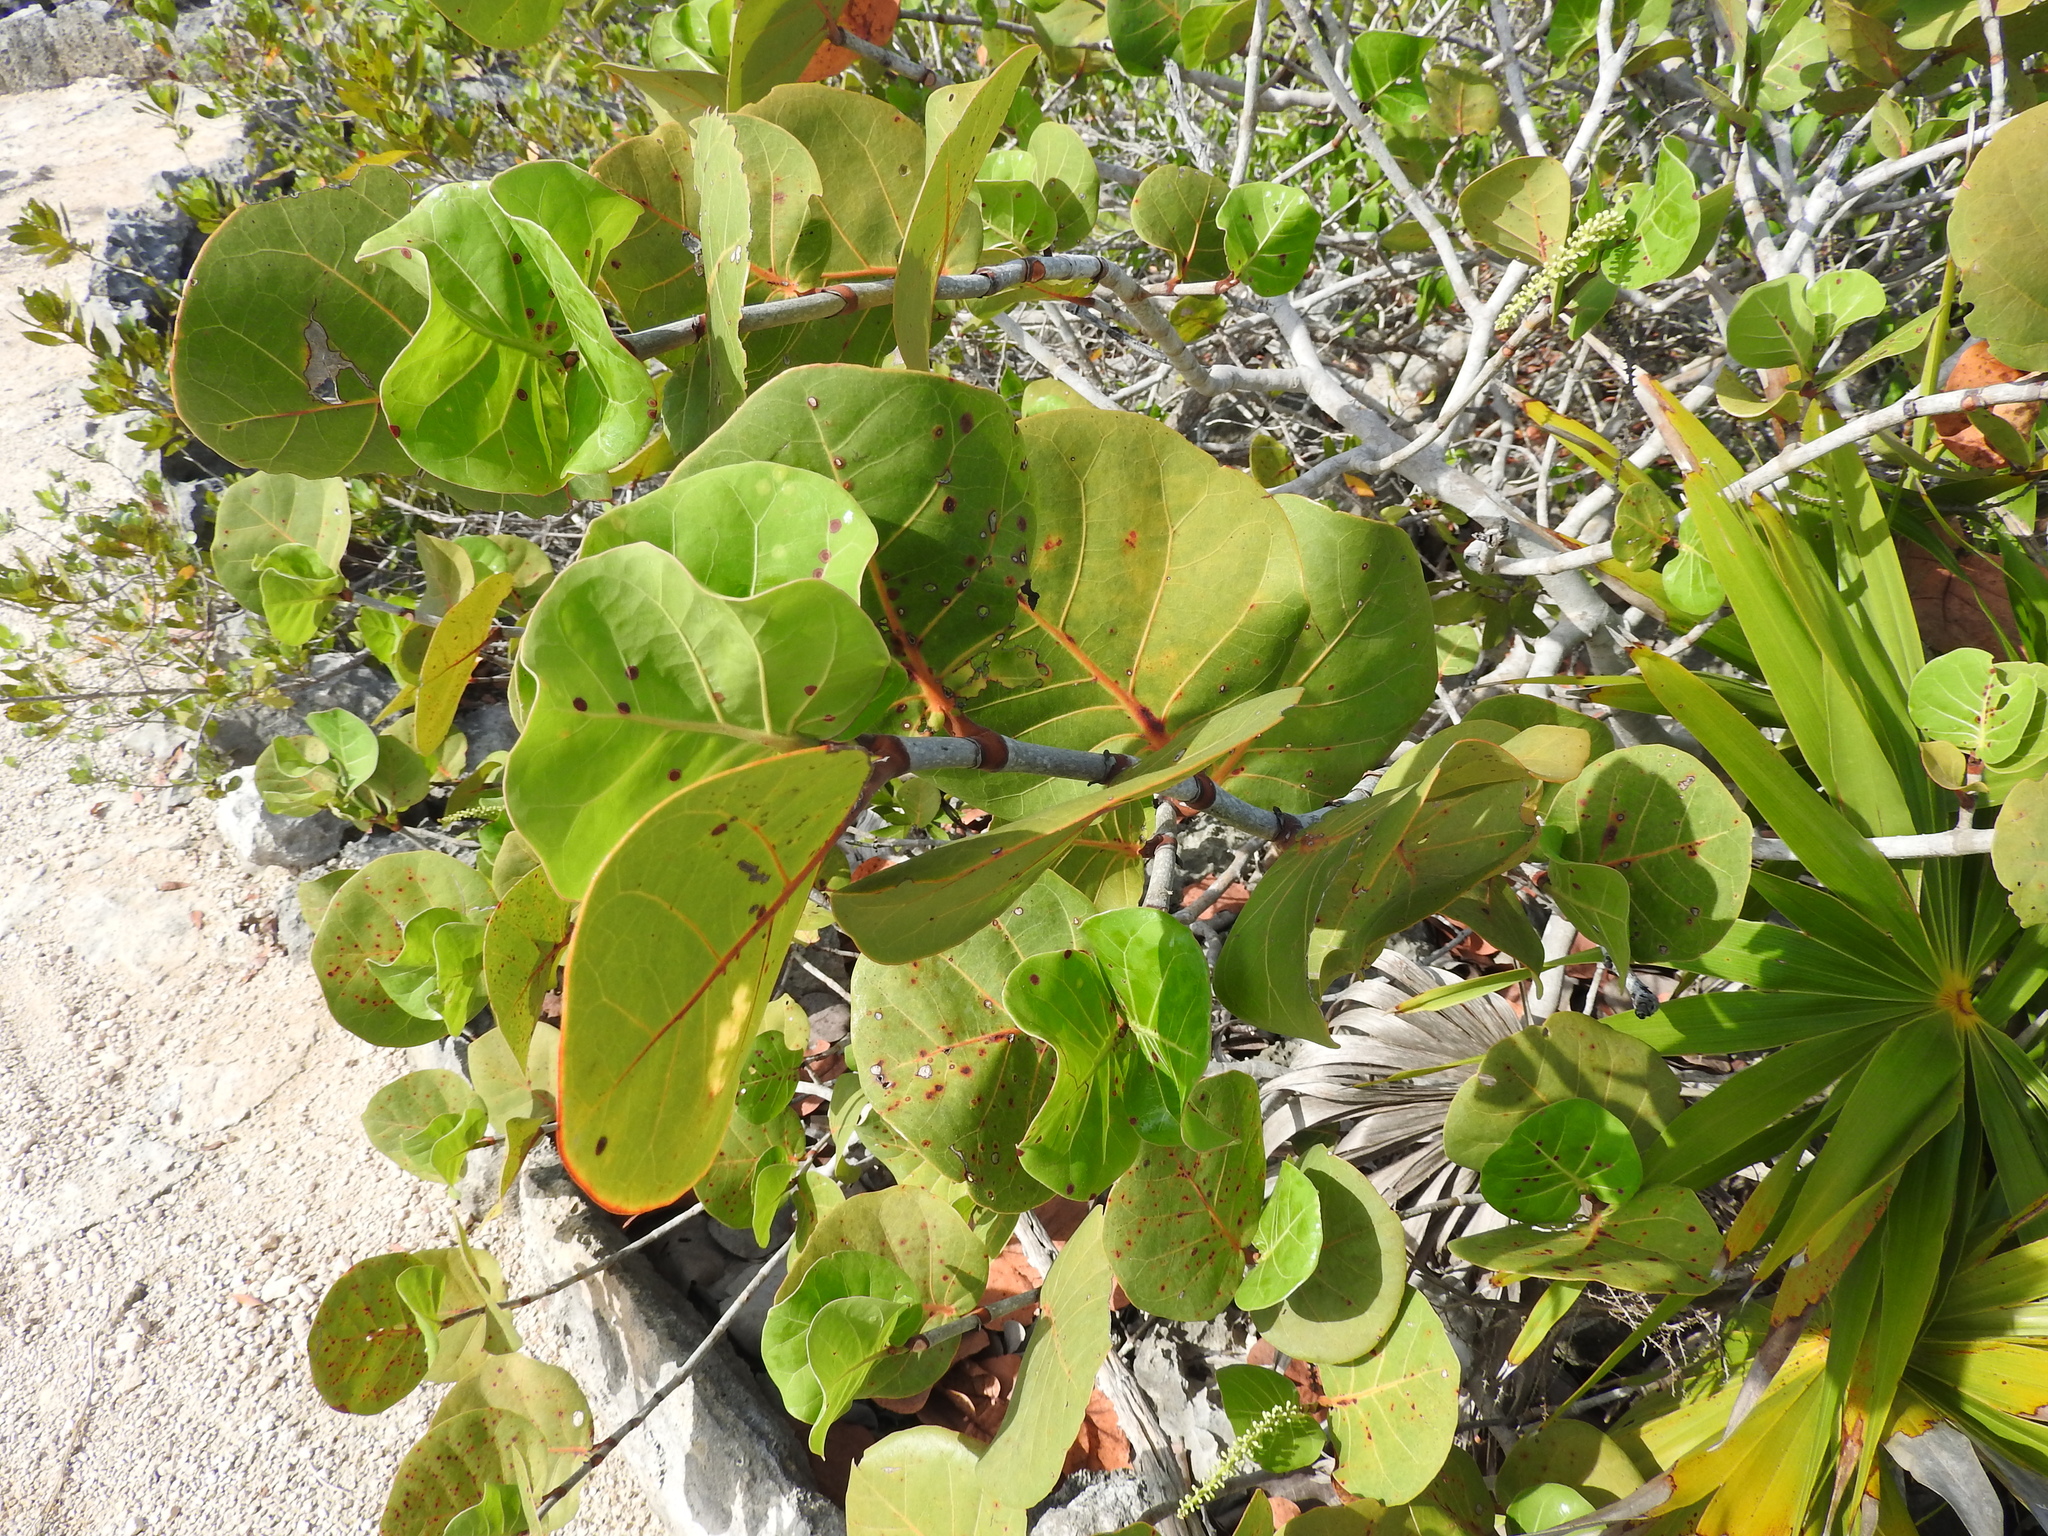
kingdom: Plantae
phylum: Tracheophyta
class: Magnoliopsida
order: Caryophyllales
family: Polygonaceae
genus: Coccoloba
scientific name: Coccoloba uvifera
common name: Seagrape
